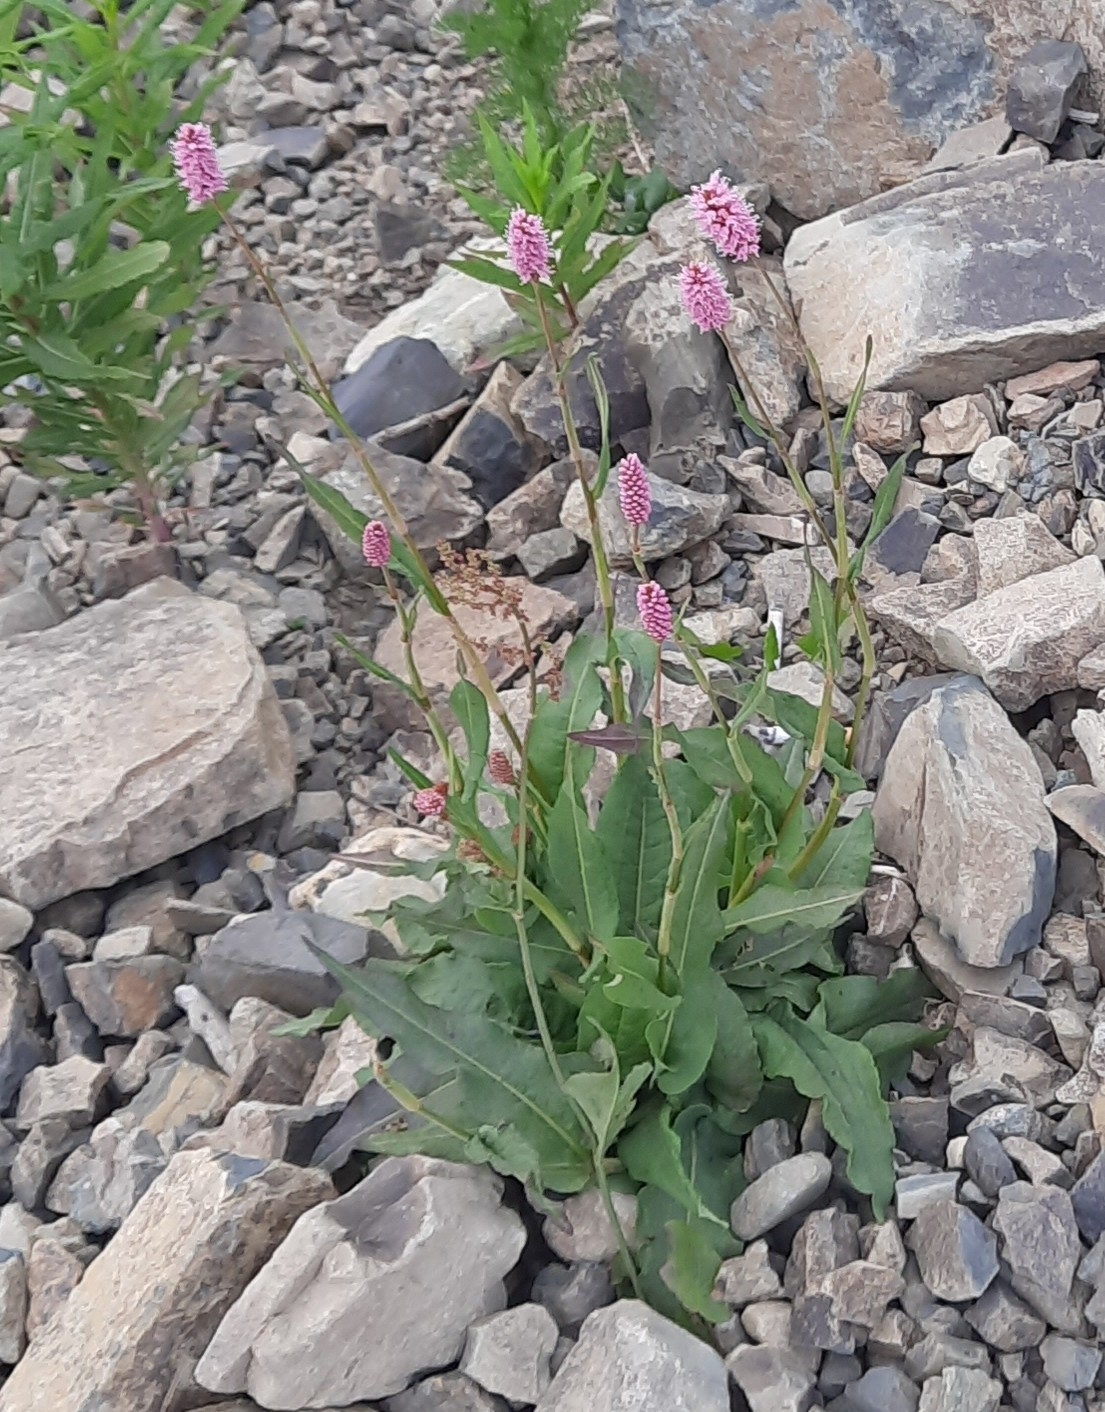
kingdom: Plantae
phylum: Tracheophyta
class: Magnoliopsida
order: Caryophyllales
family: Polygonaceae
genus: Bistorta
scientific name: Bistorta carnea
